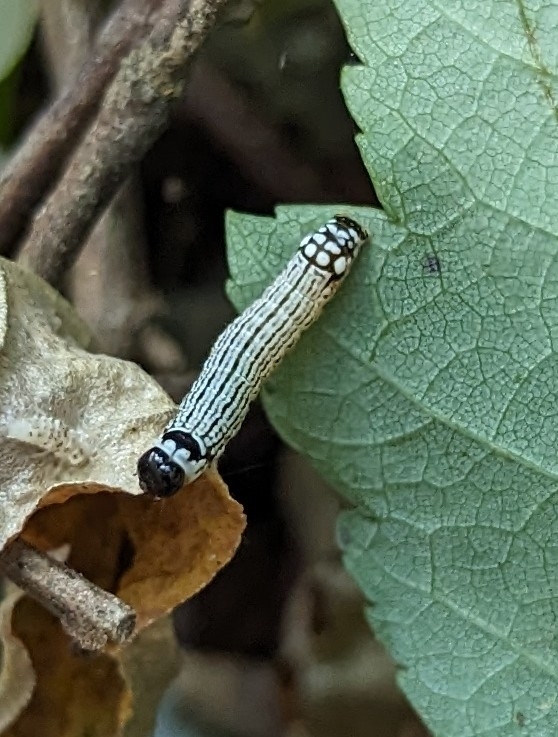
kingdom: Animalia
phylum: Arthropoda
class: Insecta
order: Lepidoptera
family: Noctuidae
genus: Phosphila
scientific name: Phosphila turbulenta
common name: Turbulent phosphila moth
